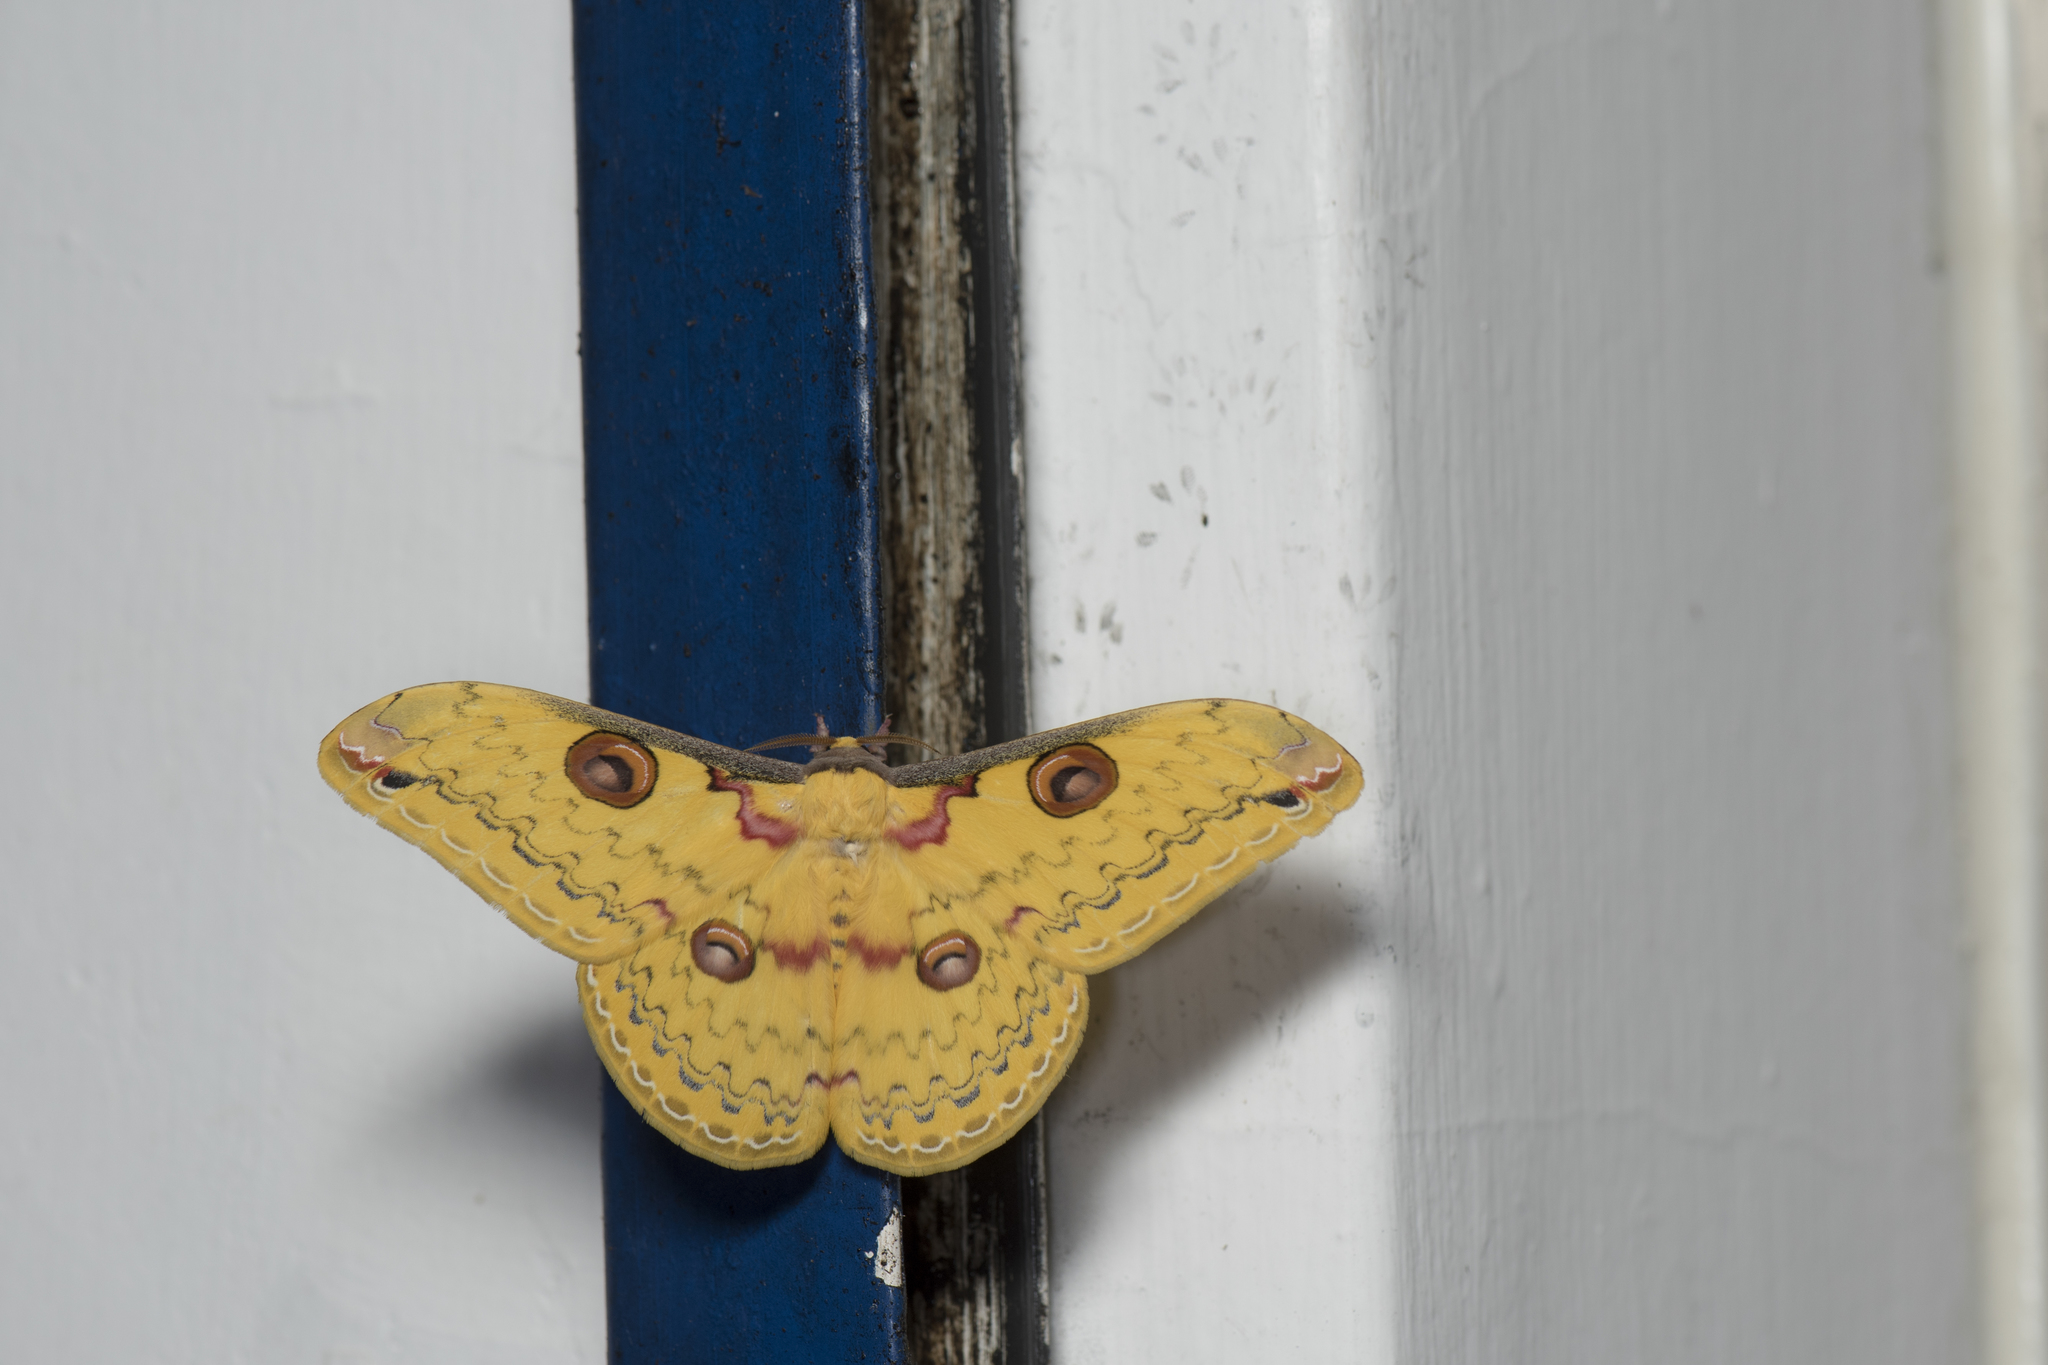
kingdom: Animalia
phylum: Arthropoda
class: Insecta
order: Lepidoptera
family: Saturniidae
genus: Loepa
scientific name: Loepa formosensis
